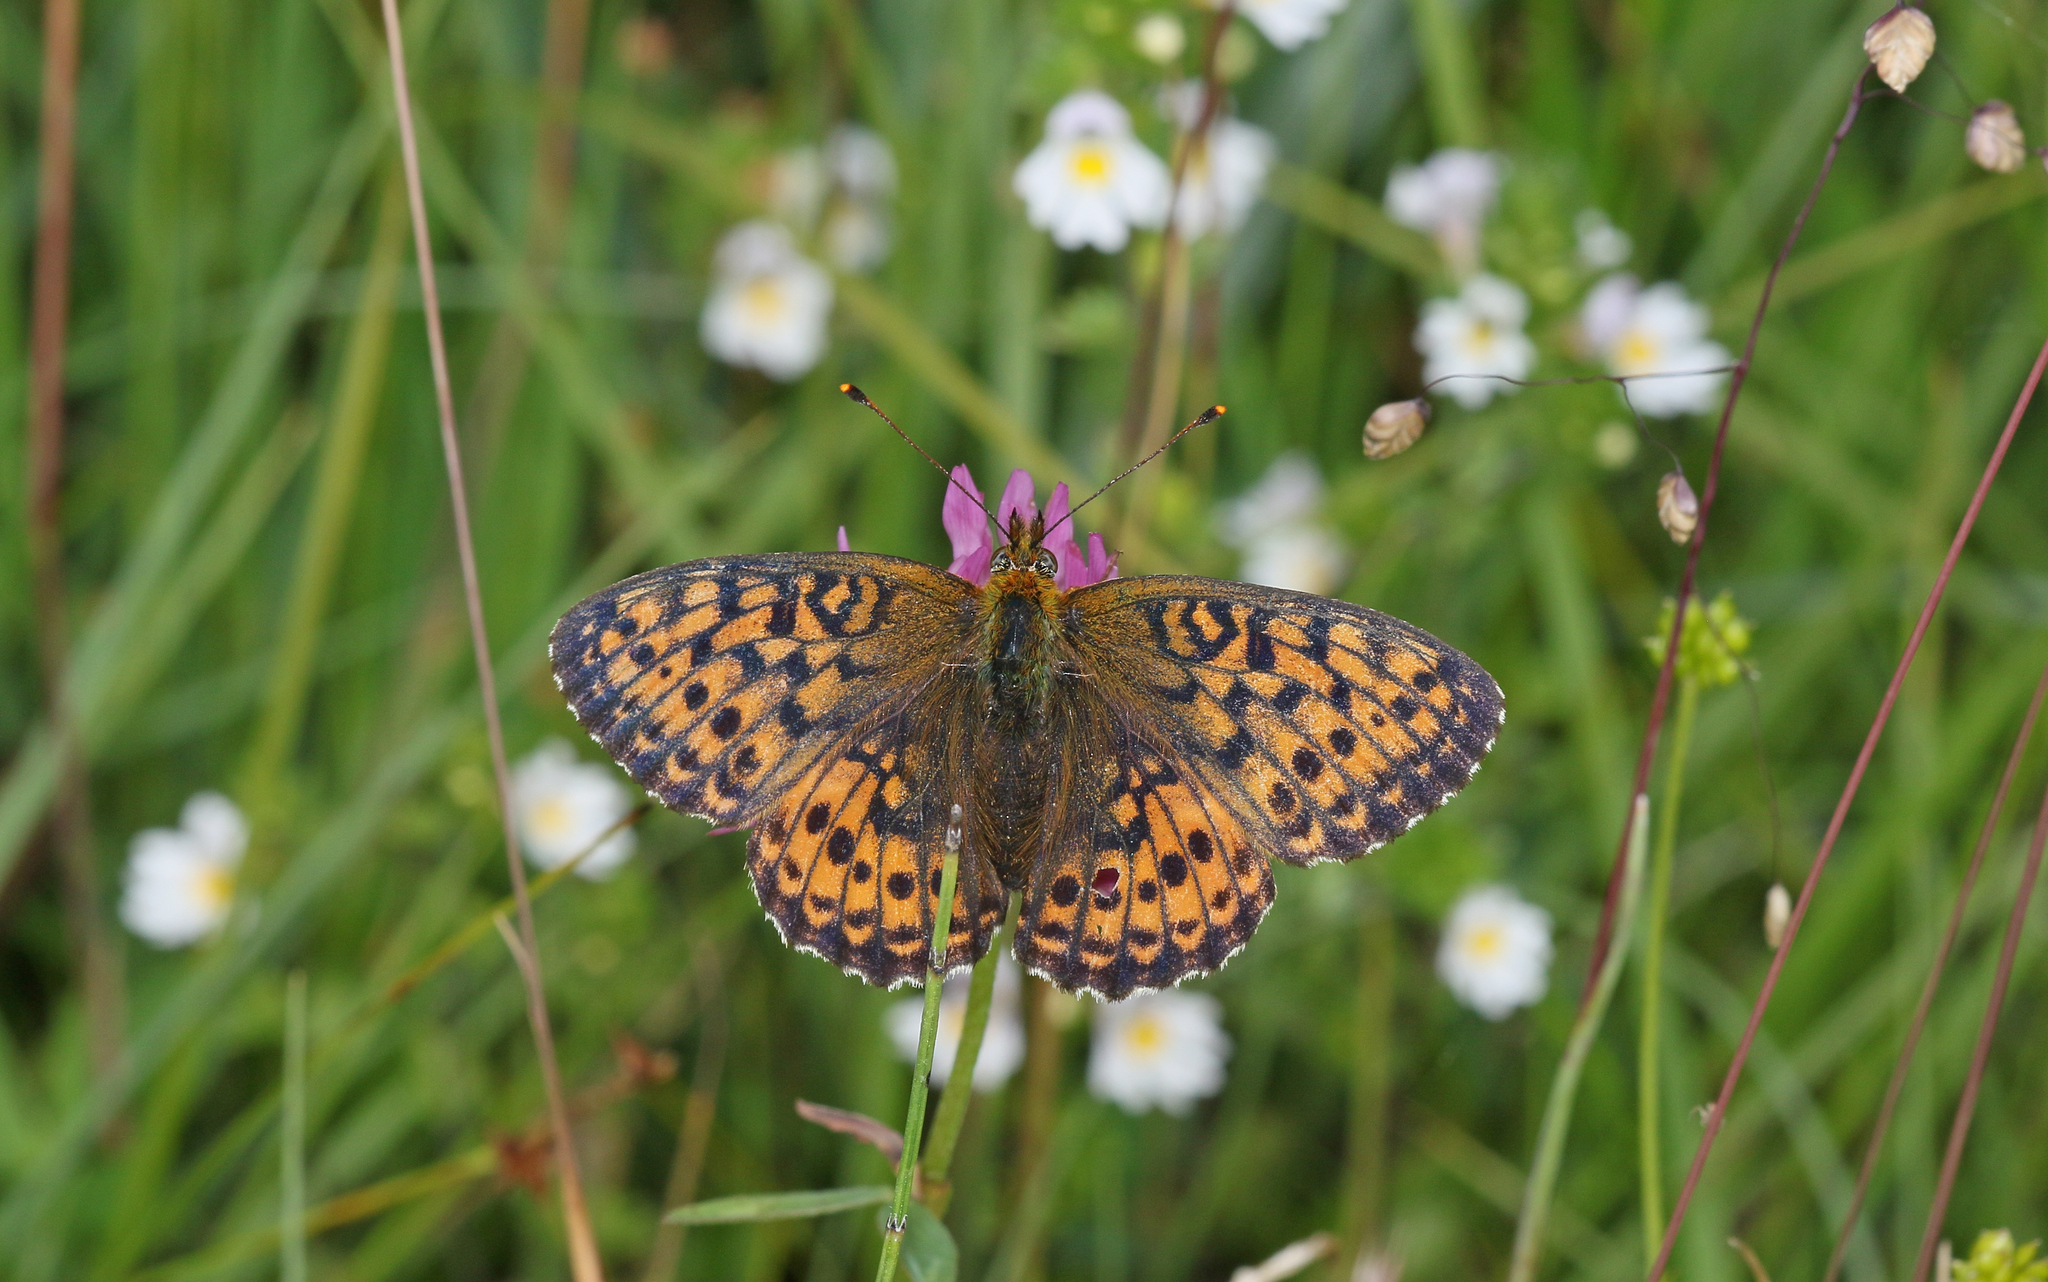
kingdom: Animalia
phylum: Arthropoda
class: Insecta
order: Lepidoptera
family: Nymphalidae
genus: Brenthis
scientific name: Brenthis ino
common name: Lesser marbled fritillary
